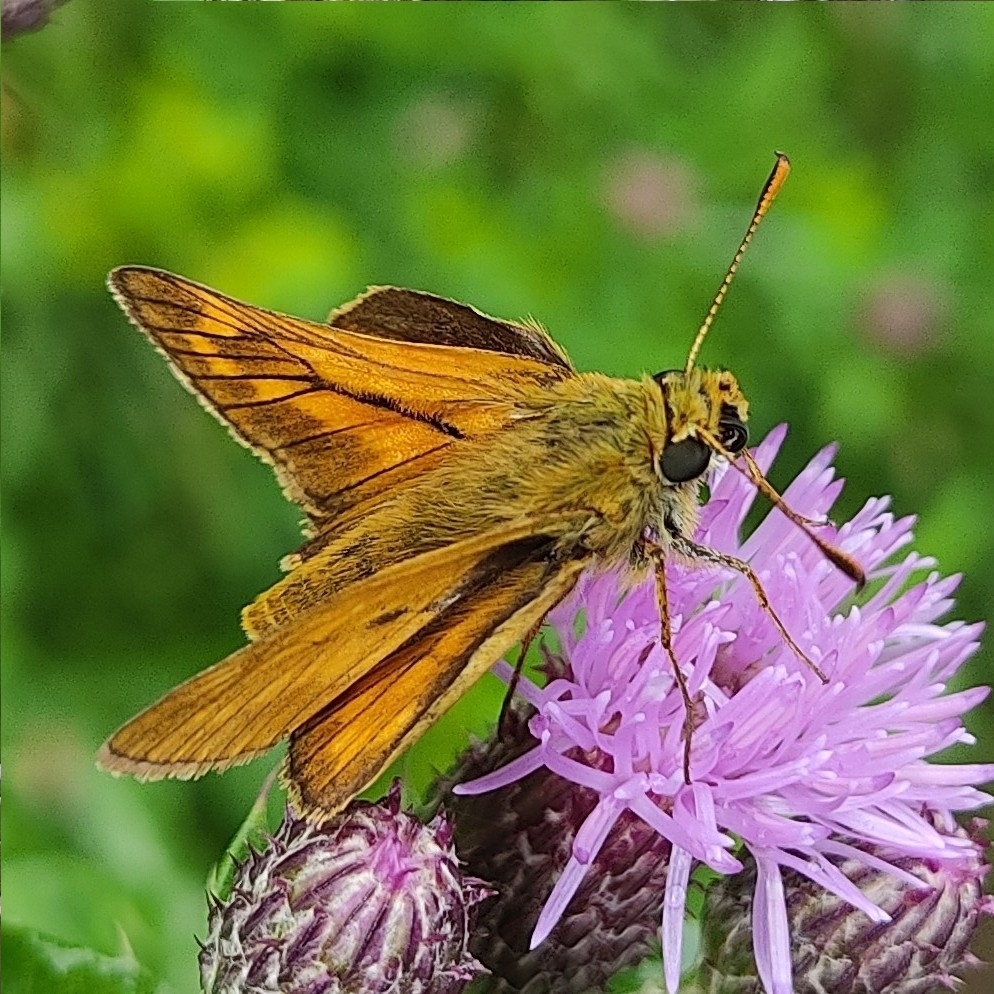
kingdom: Animalia
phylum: Arthropoda
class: Insecta
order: Lepidoptera
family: Hesperiidae
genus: Ochlodes
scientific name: Ochlodes venata
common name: Large skipper
